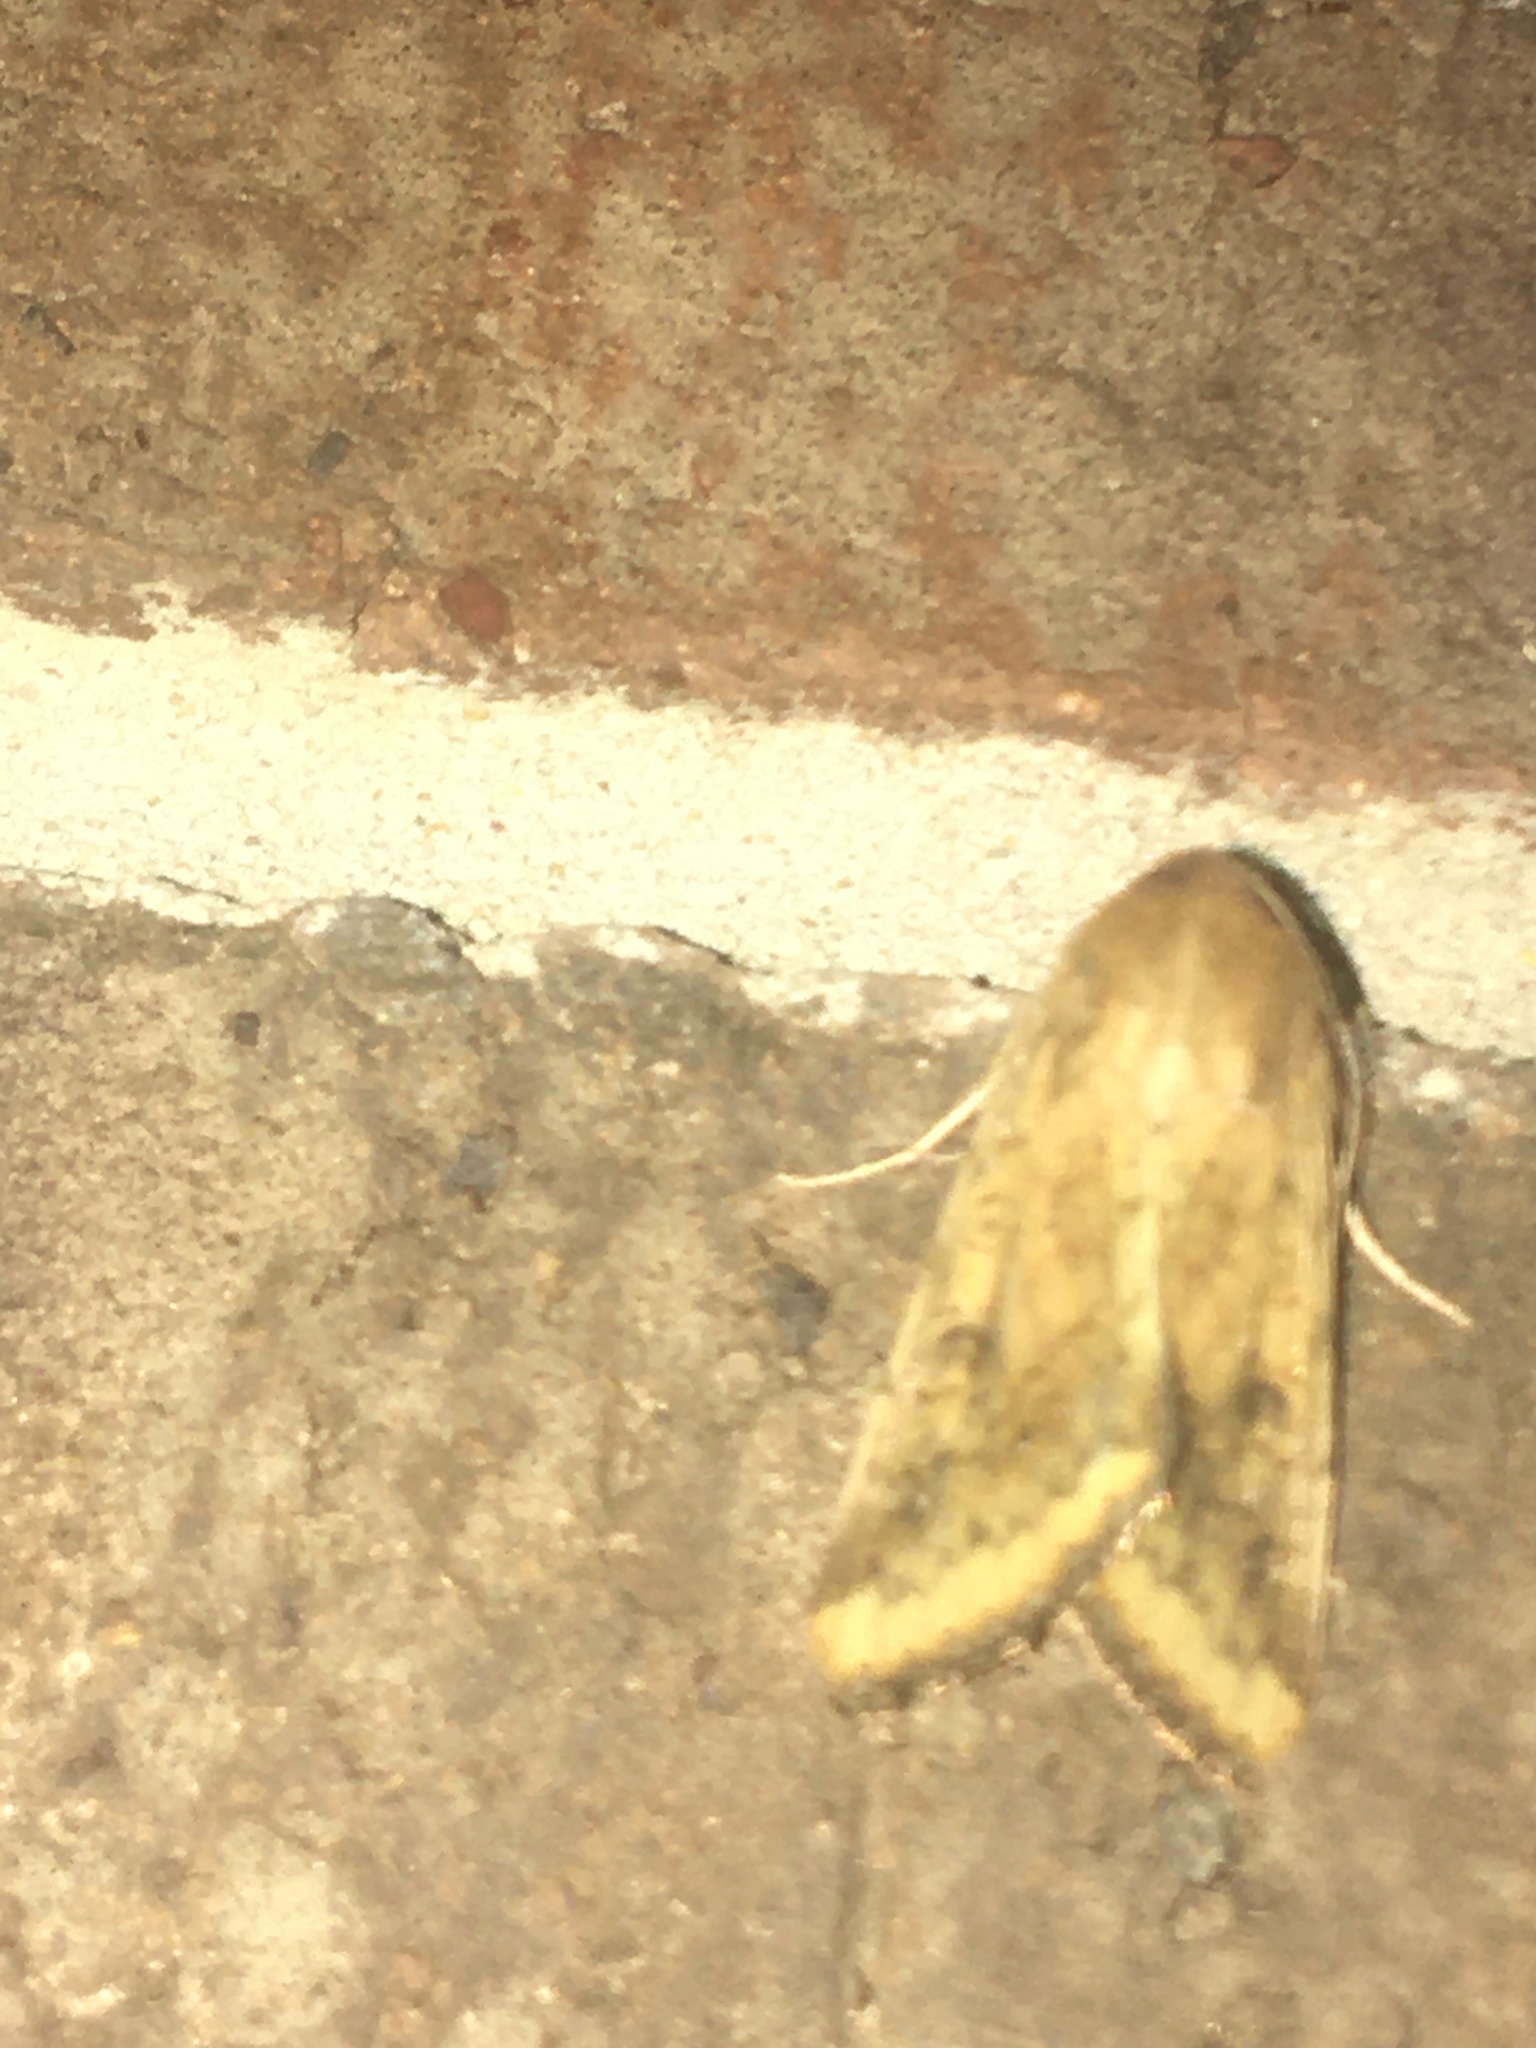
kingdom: Animalia
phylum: Arthropoda
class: Insecta
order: Lepidoptera
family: Noctuidae
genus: Helicoverpa
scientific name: Helicoverpa zea
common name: Bollworm
